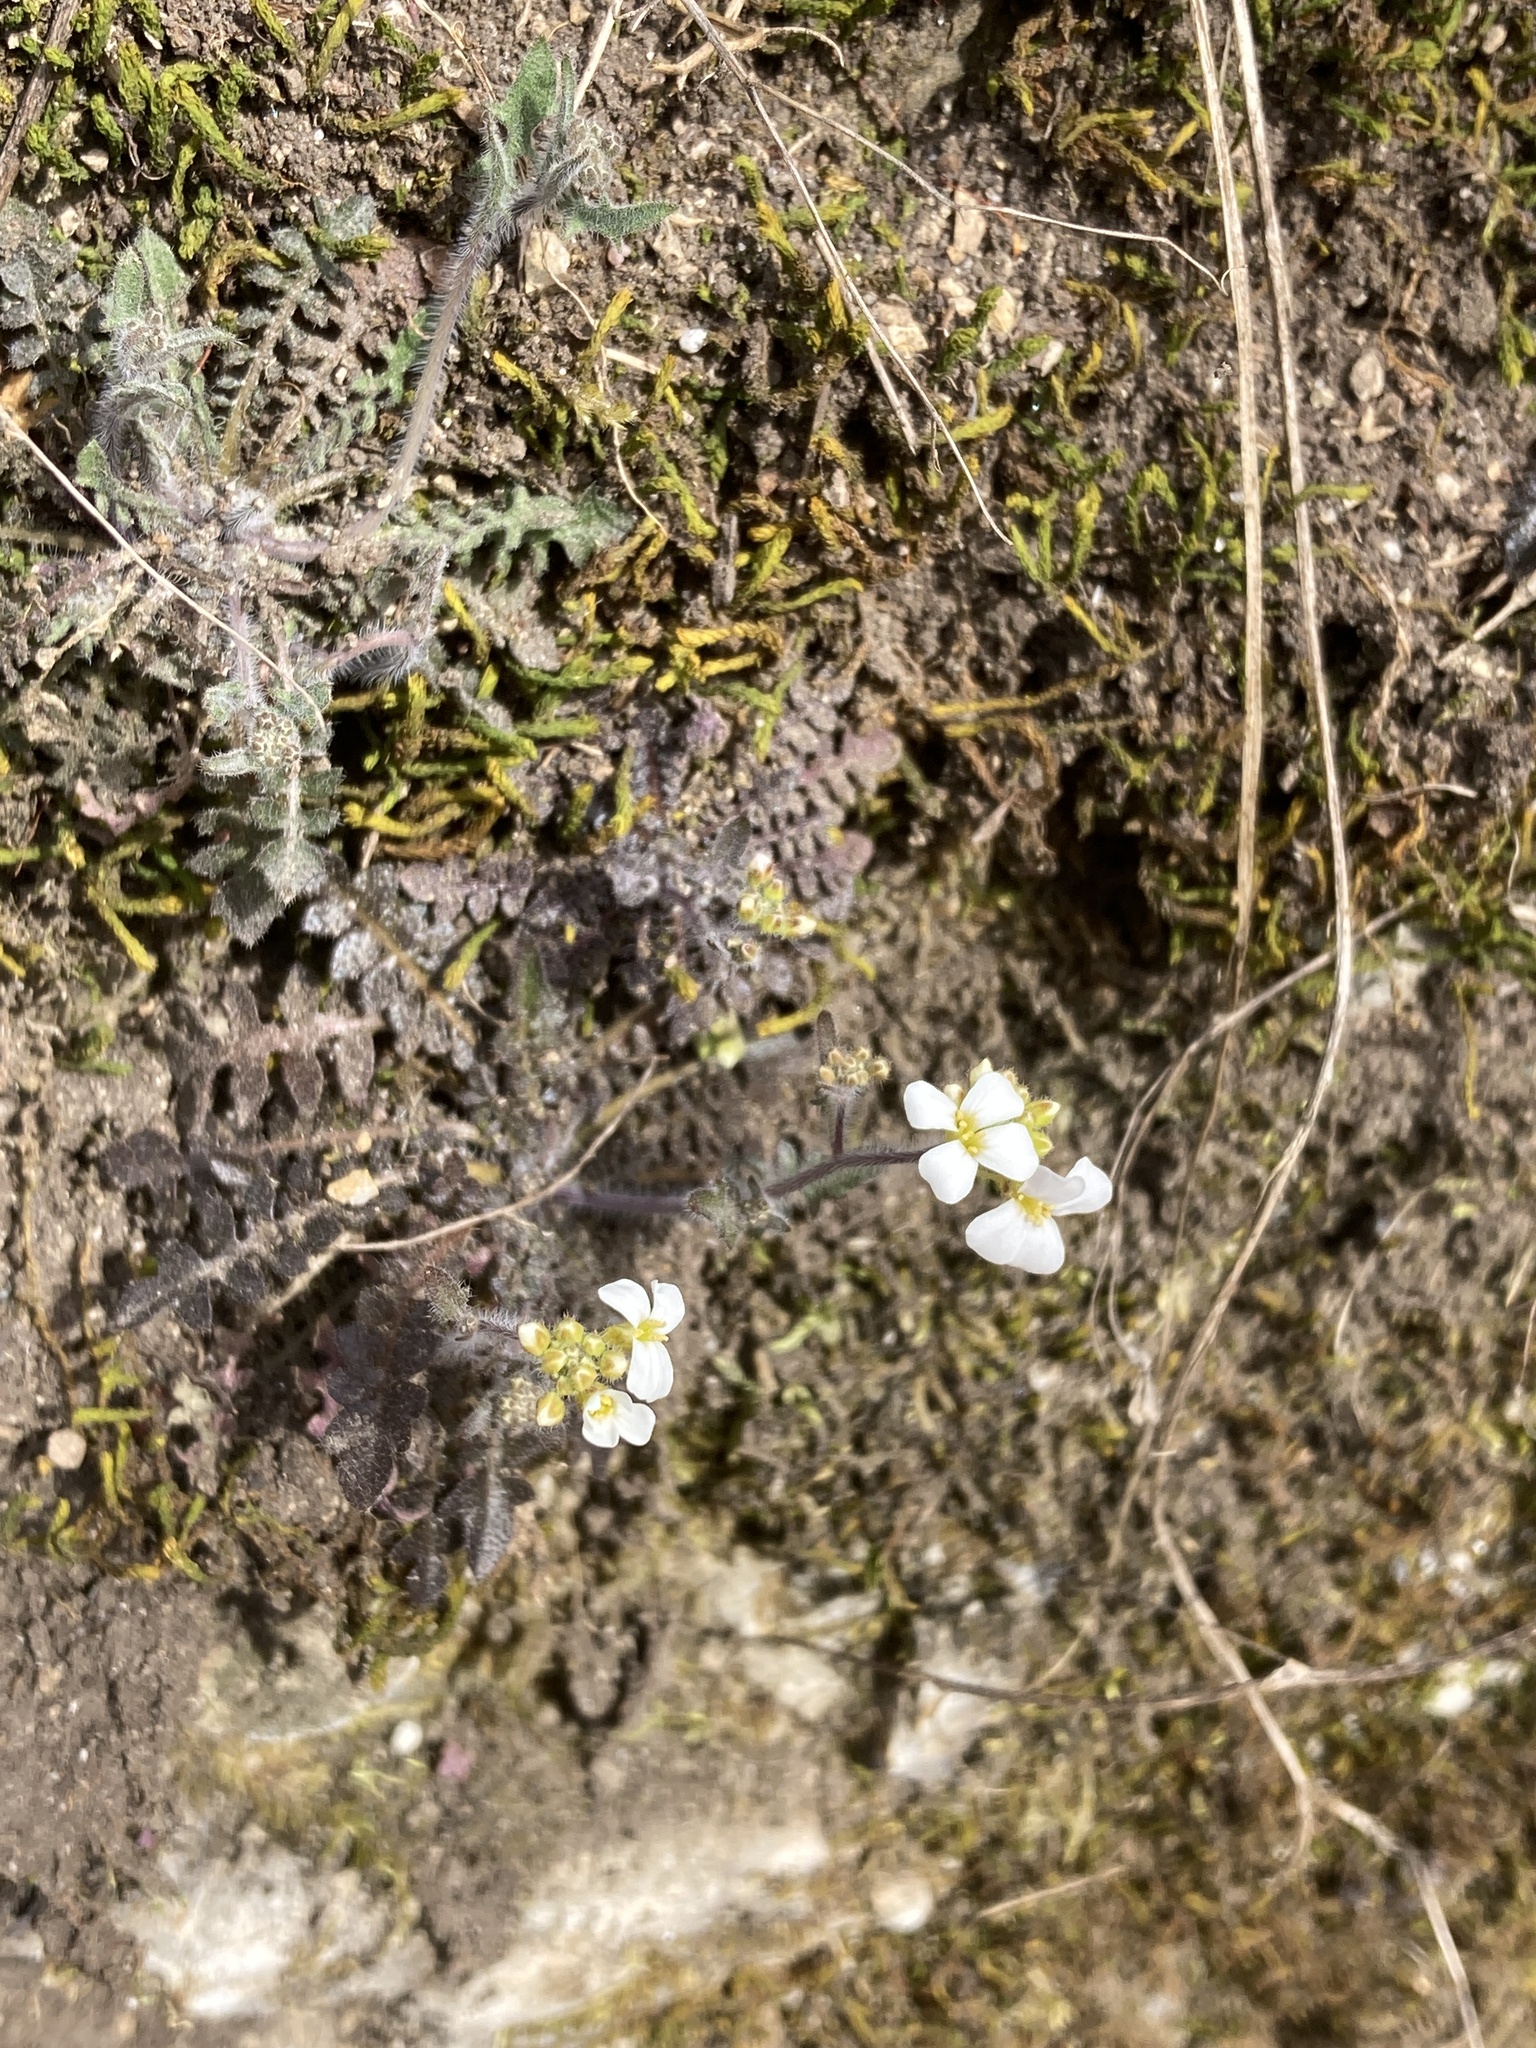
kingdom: Plantae
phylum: Tracheophyta
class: Magnoliopsida
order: Brassicales
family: Brassicaceae
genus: Arabidopsis
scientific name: Arabidopsis arenosa
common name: Sand rock-cress
